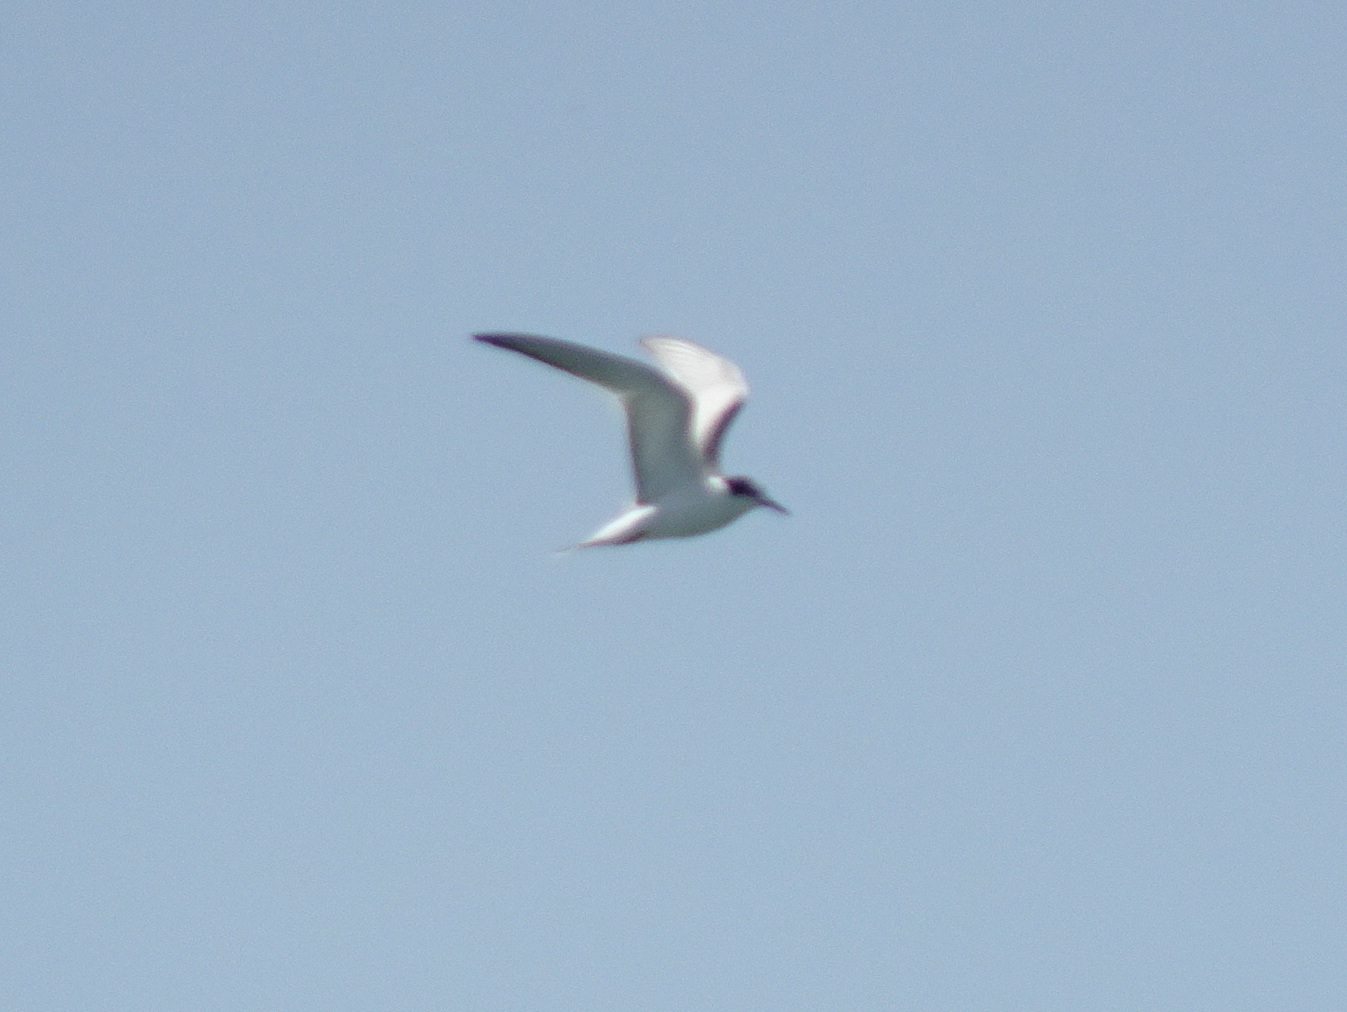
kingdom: Animalia
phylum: Chordata
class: Aves
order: Charadriiformes
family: Laridae
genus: Sterna
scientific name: Sterna hirundo
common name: Common tern
